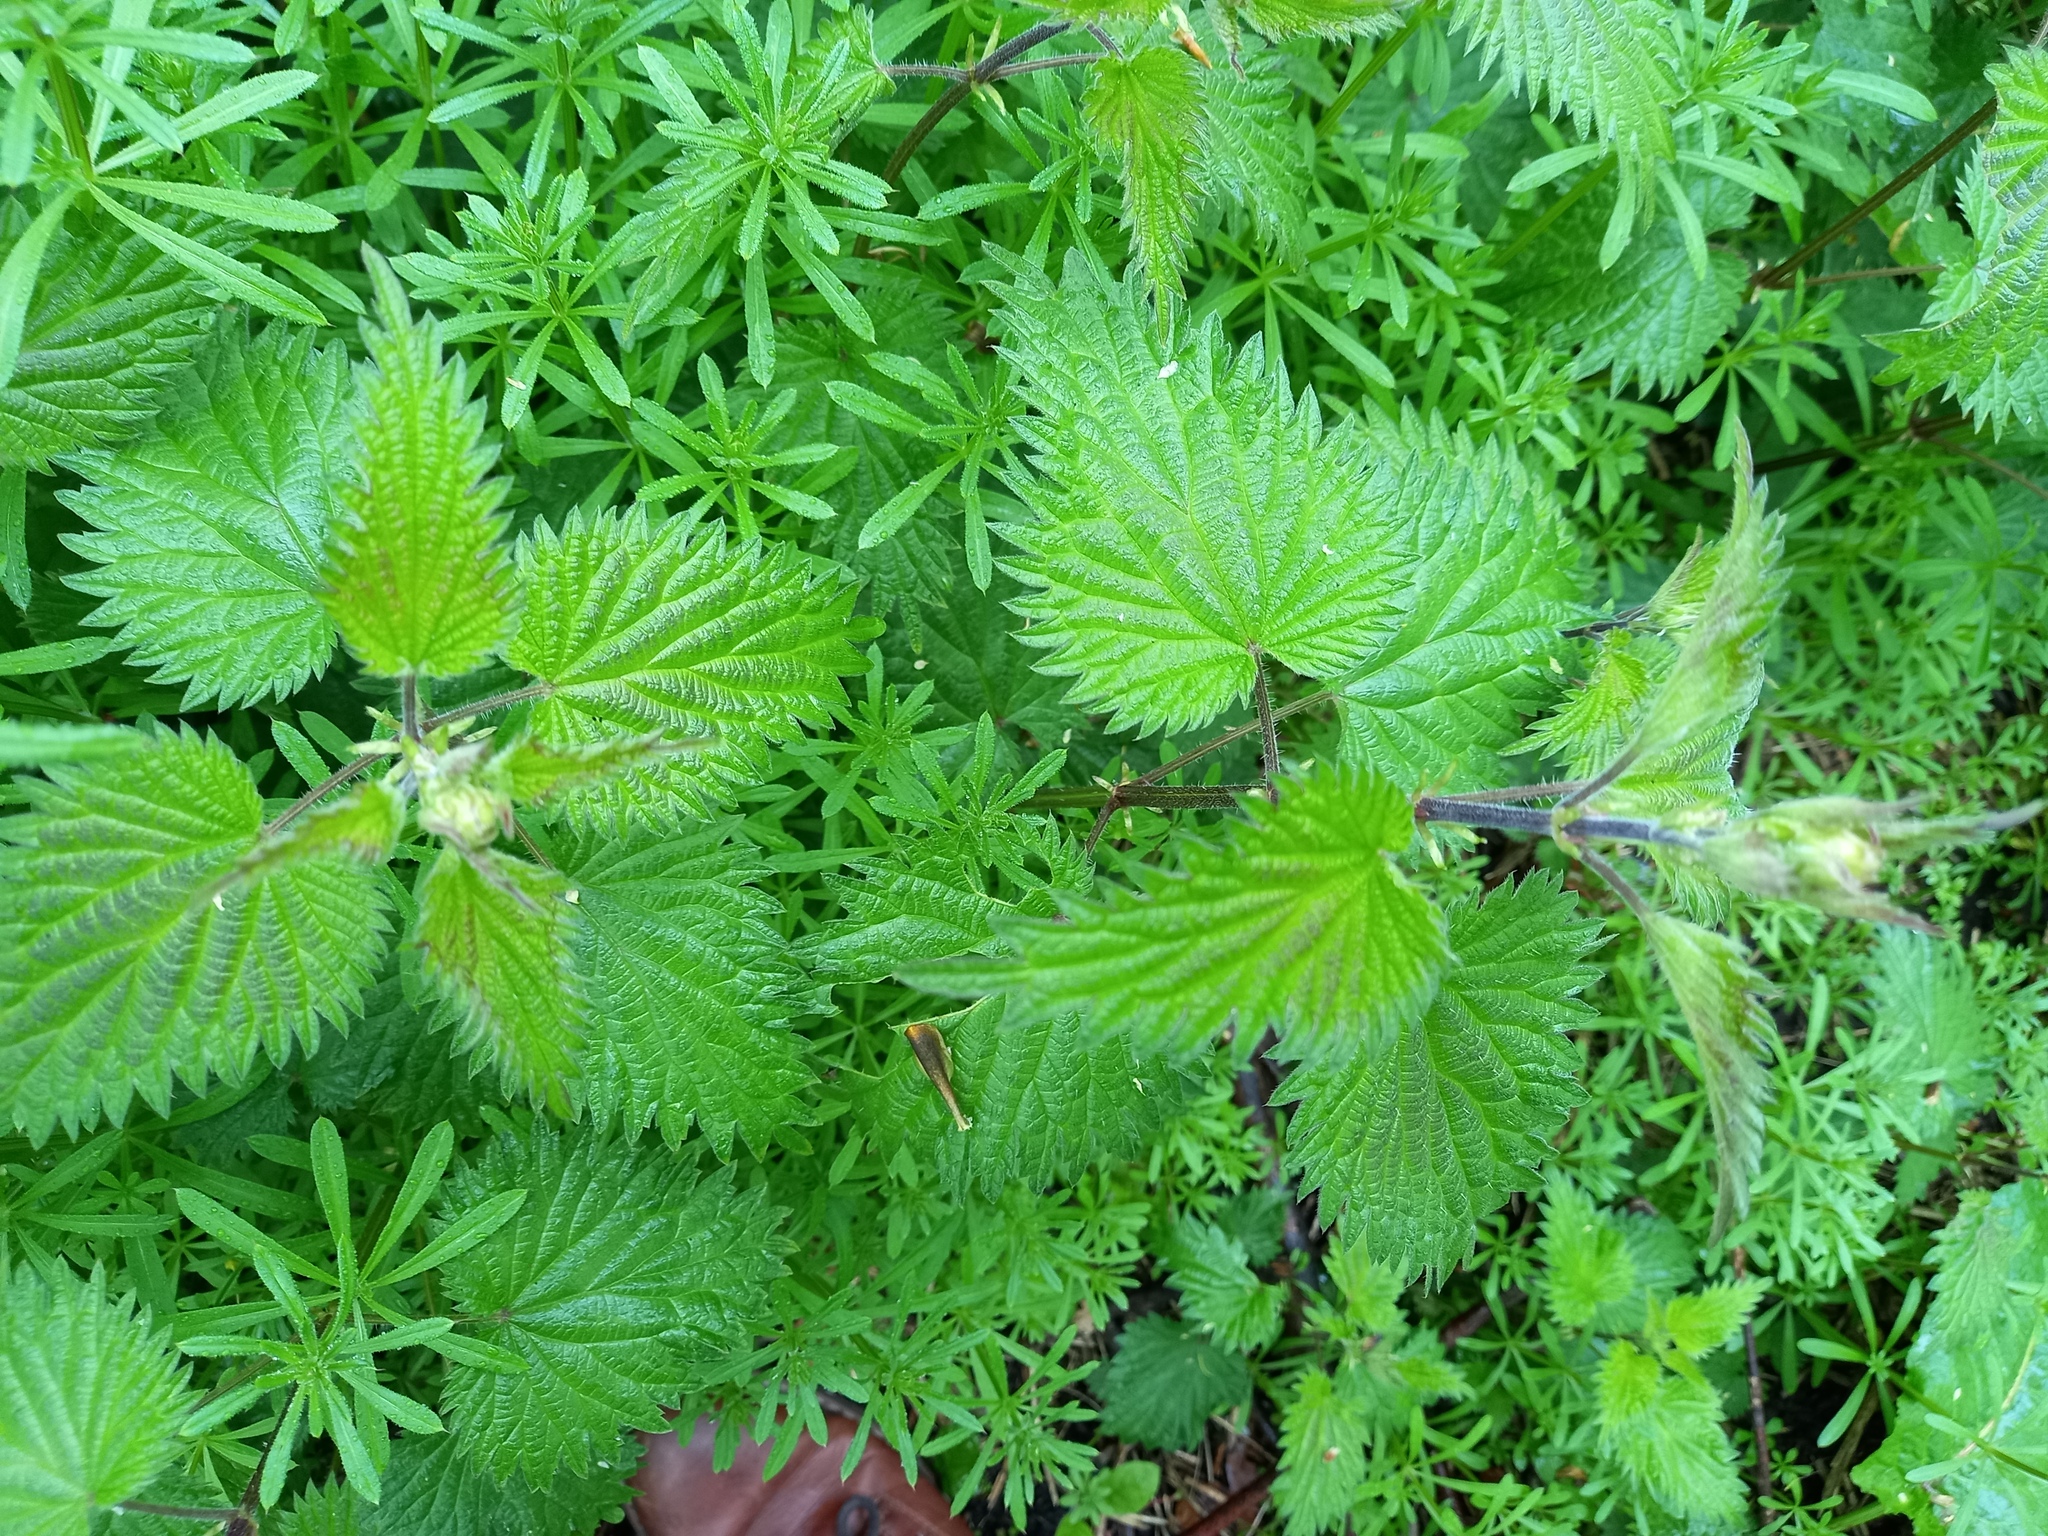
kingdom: Plantae
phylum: Tracheophyta
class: Magnoliopsida
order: Rosales
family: Urticaceae
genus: Urtica
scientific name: Urtica dioica
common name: Common nettle
